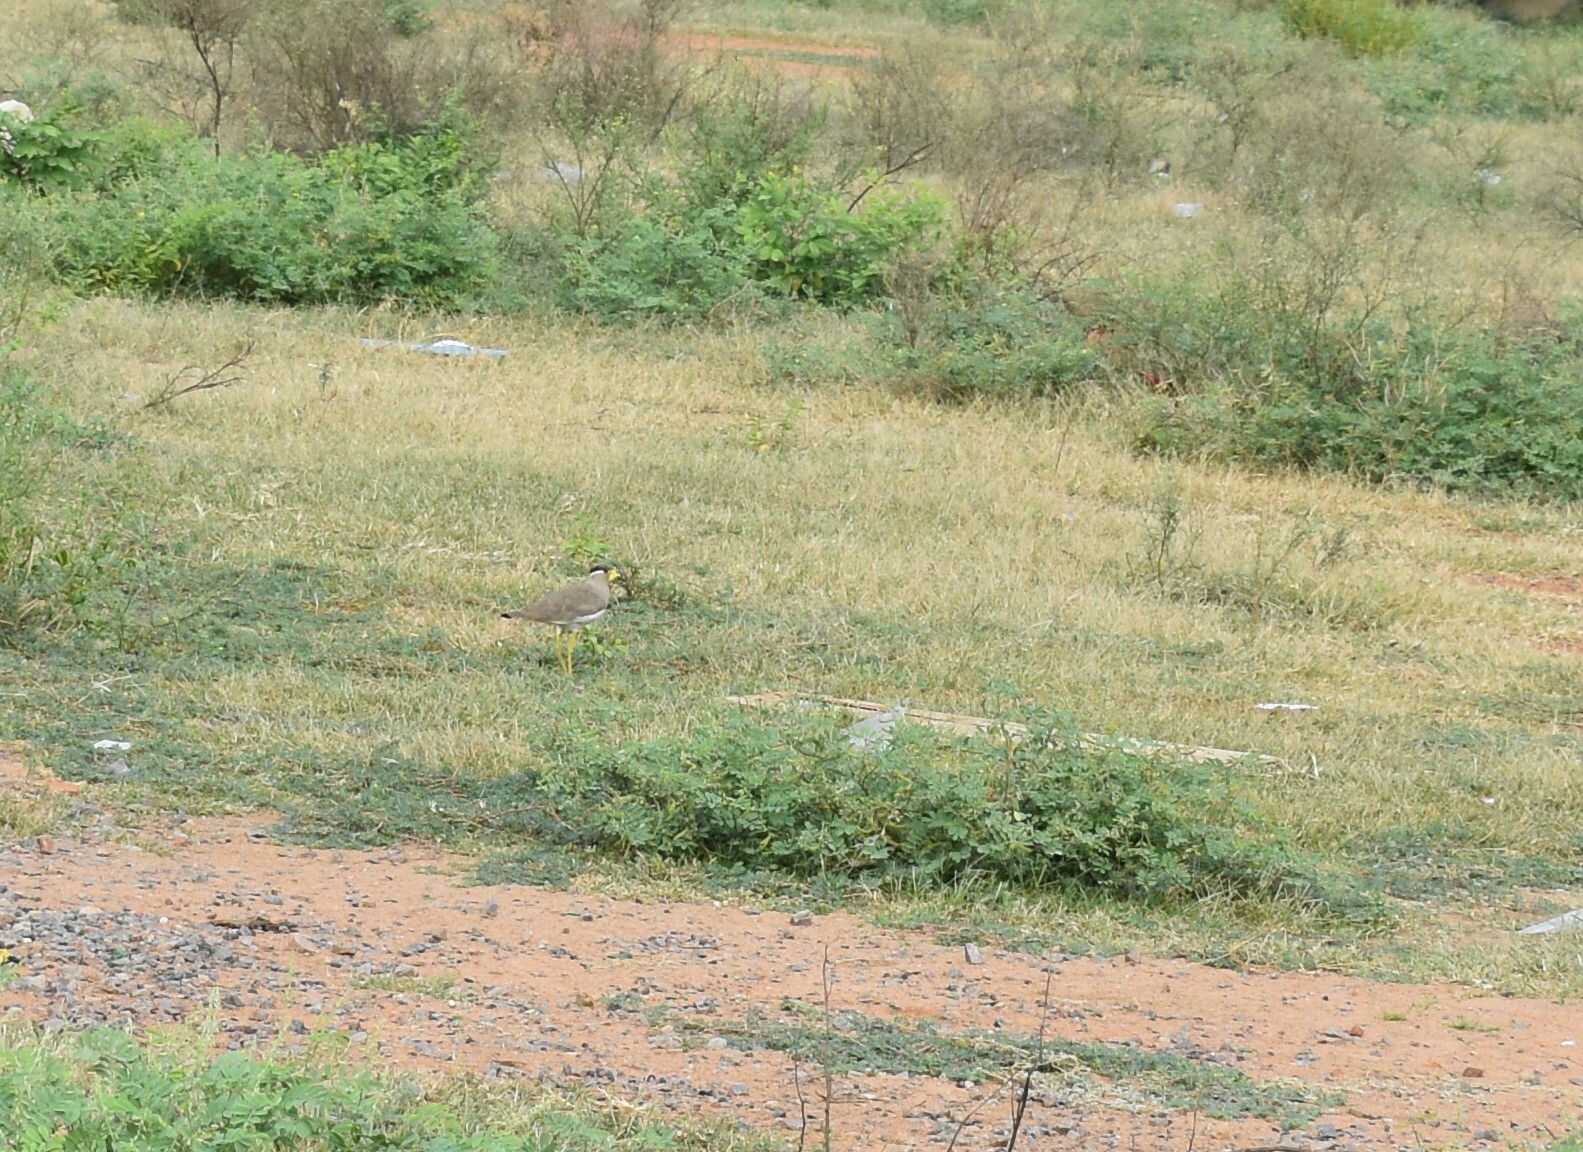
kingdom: Animalia
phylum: Chordata
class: Aves
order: Charadriiformes
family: Charadriidae
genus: Vanellus
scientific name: Vanellus malabaricus
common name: Yellow-wattled lapwing
